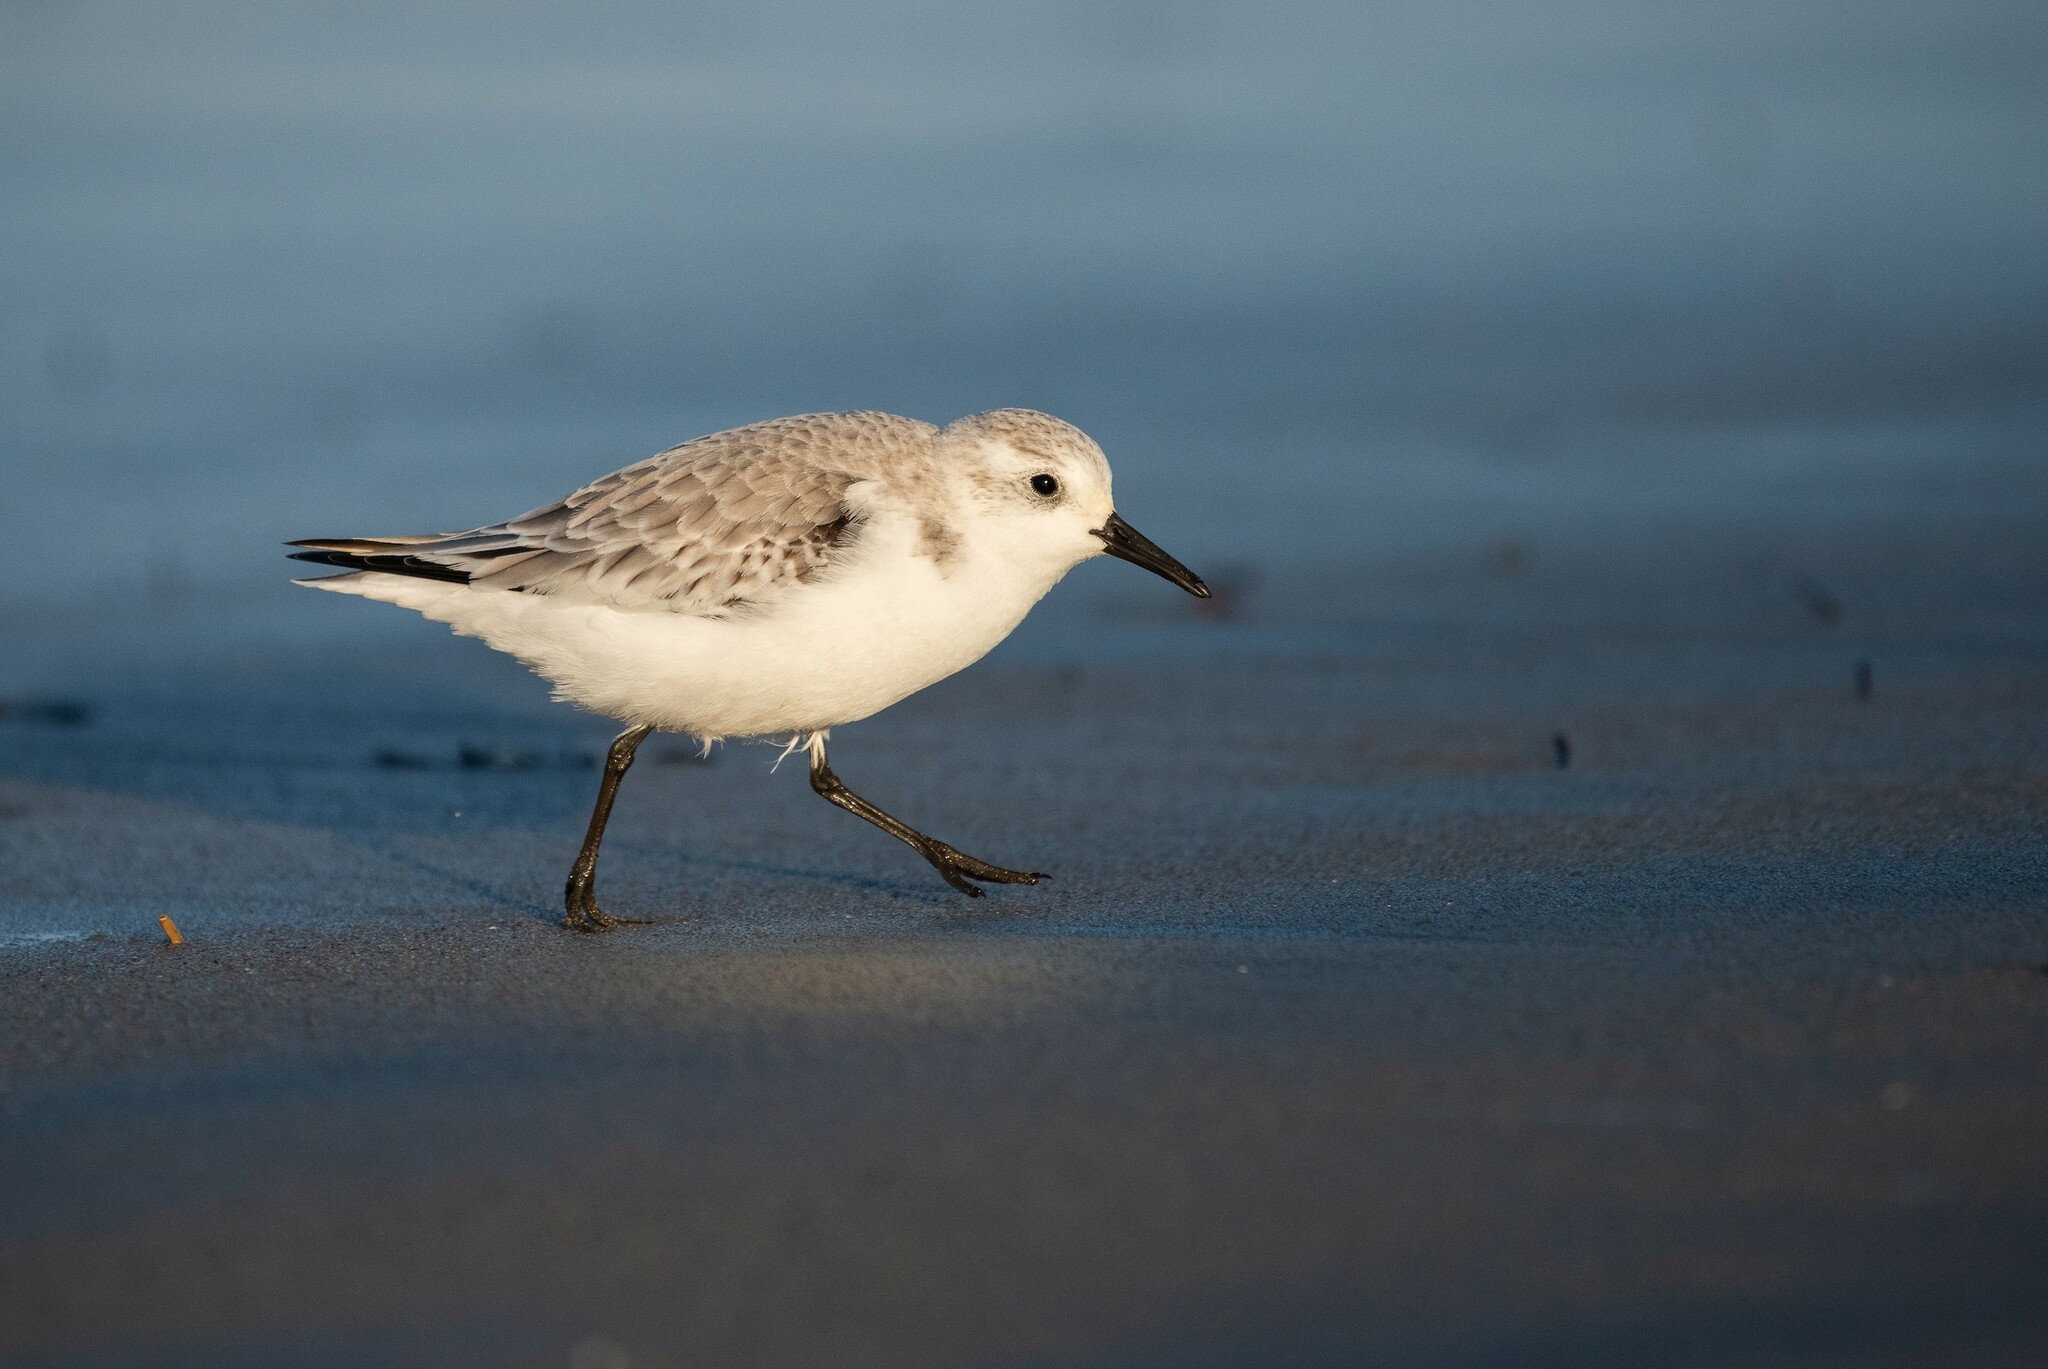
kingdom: Animalia
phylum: Chordata
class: Aves
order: Charadriiformes
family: Scolopacidae
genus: Calidris
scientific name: Calidris alba
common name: Sanderling
